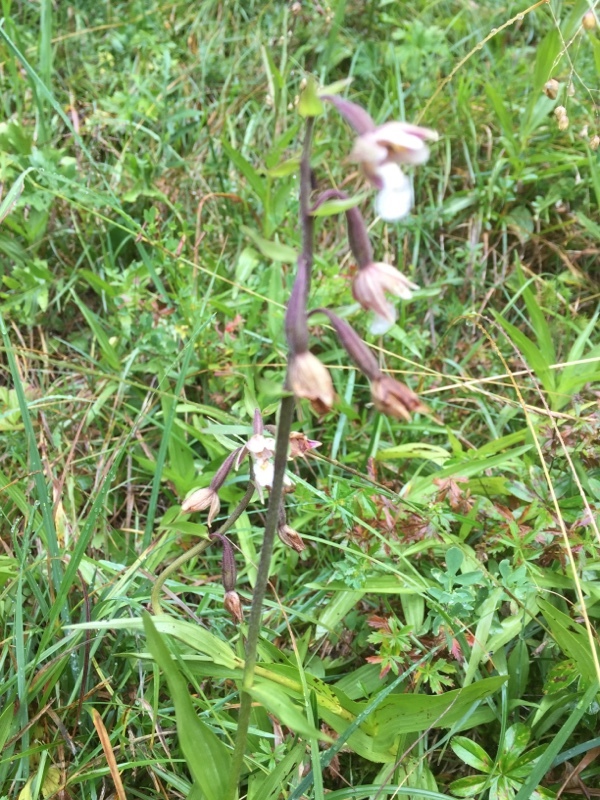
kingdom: Plantae
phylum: Tracheophyta
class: Liliopsida
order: Asparagales
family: Orchidaceae
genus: Epipactis
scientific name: Epipactis palustris
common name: Marsh helleborine
